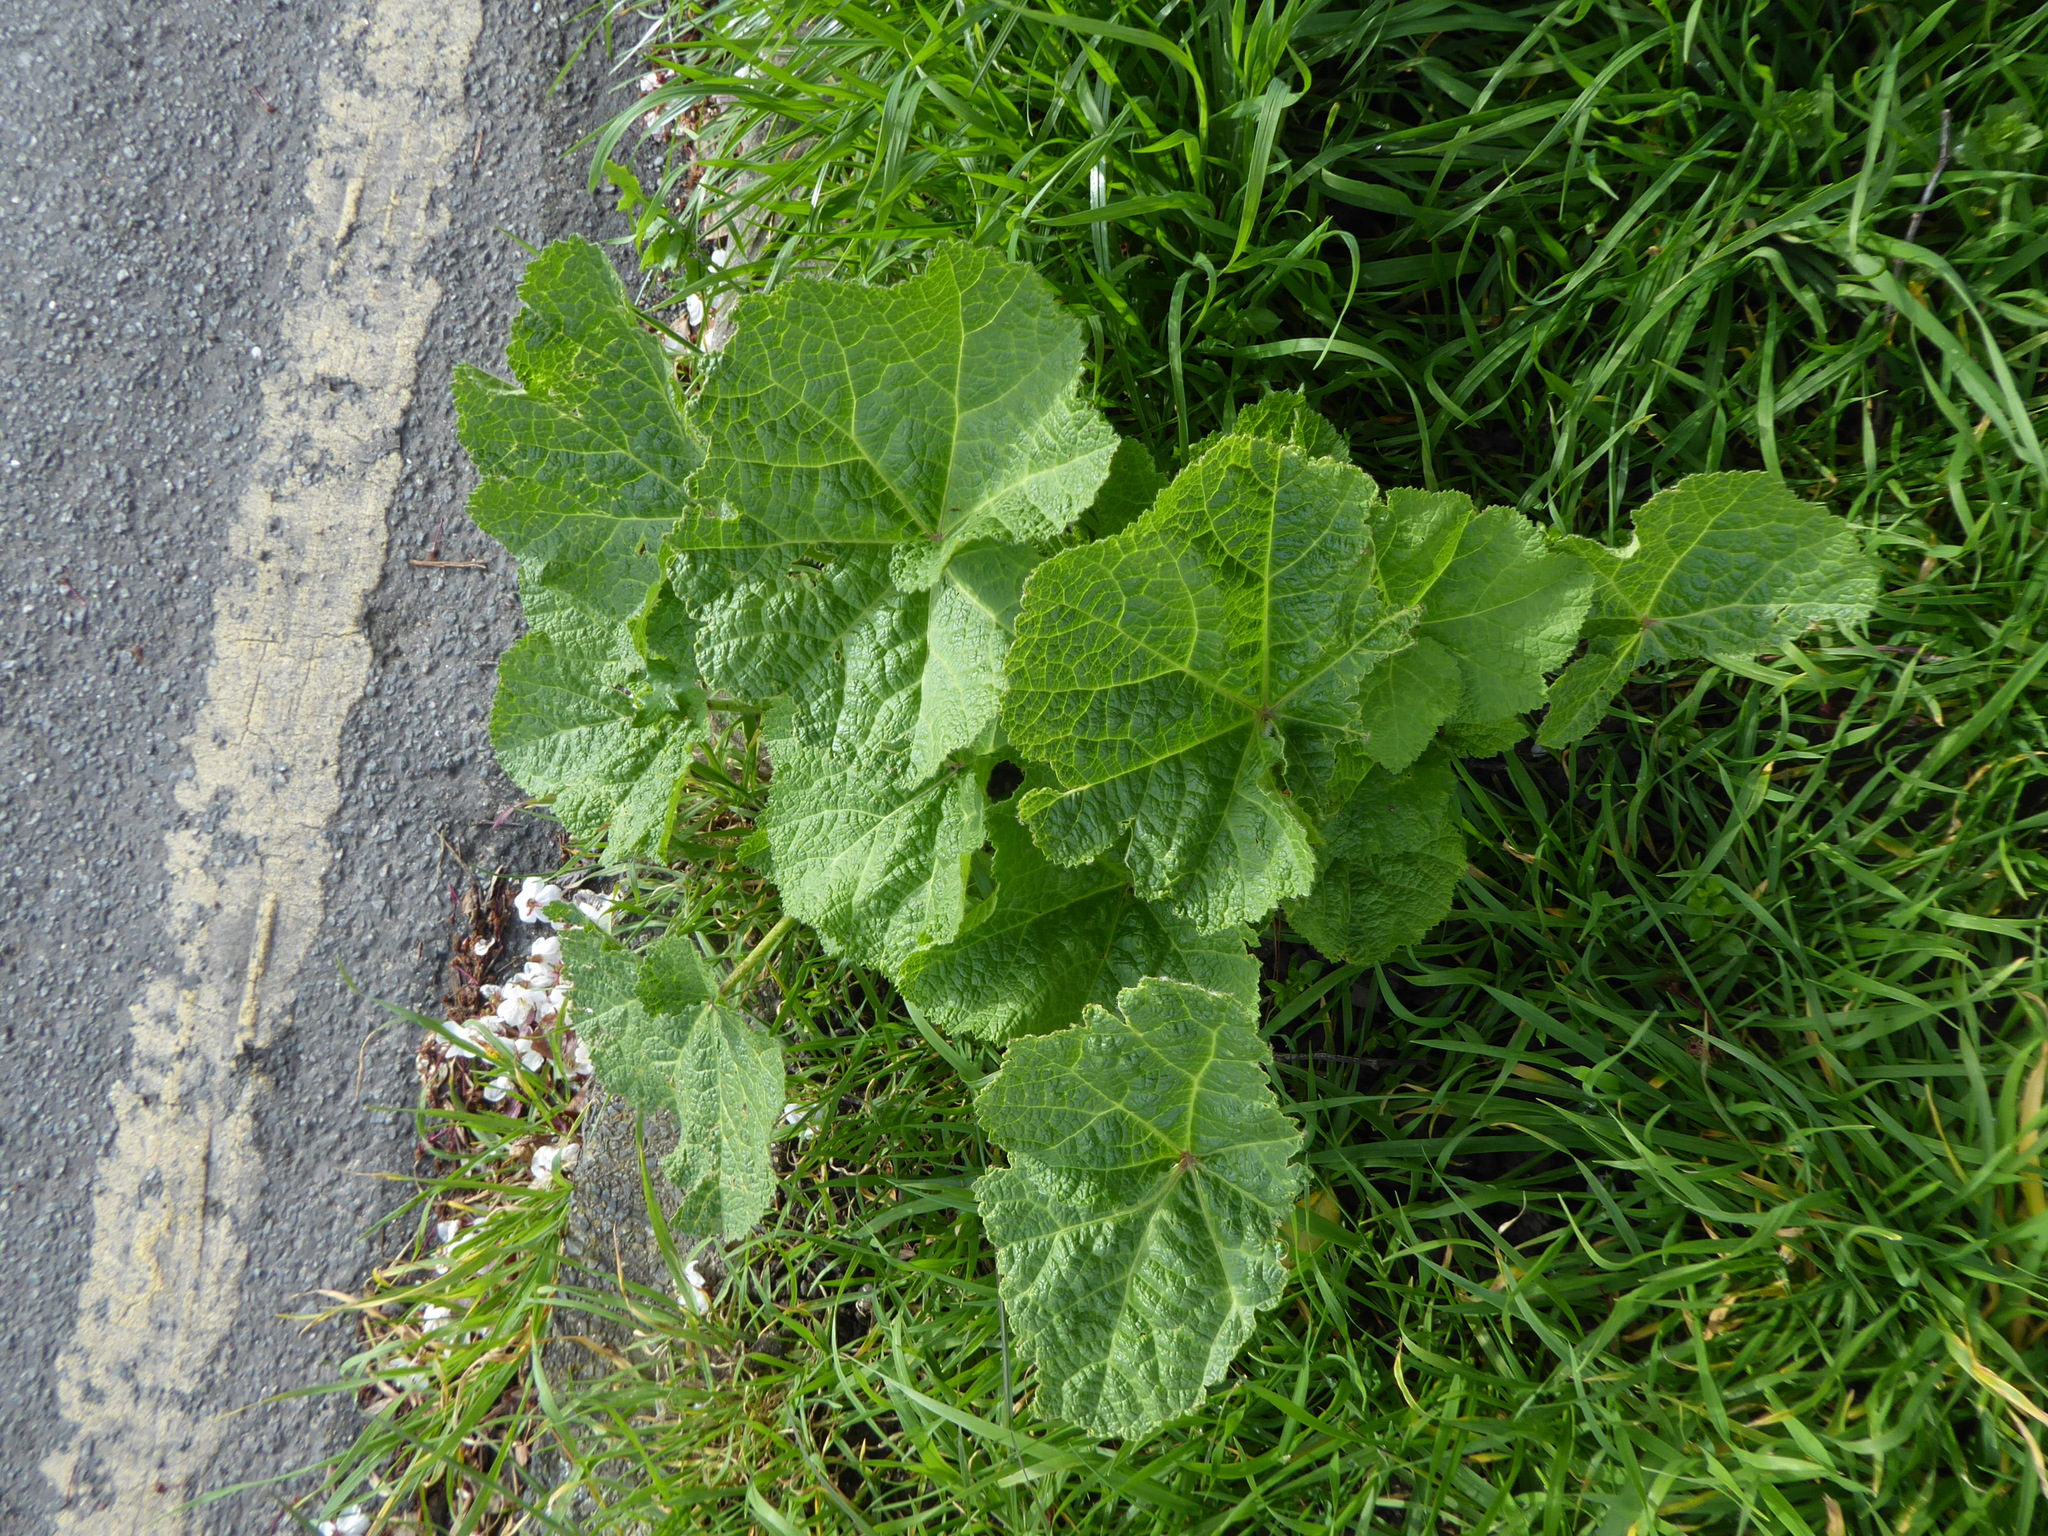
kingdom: Plantae
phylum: Tracheophyta
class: Magnoliopsida
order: Malvales
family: Malvaceae
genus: Alcea
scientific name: Alcea rosea
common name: Hollyhock
